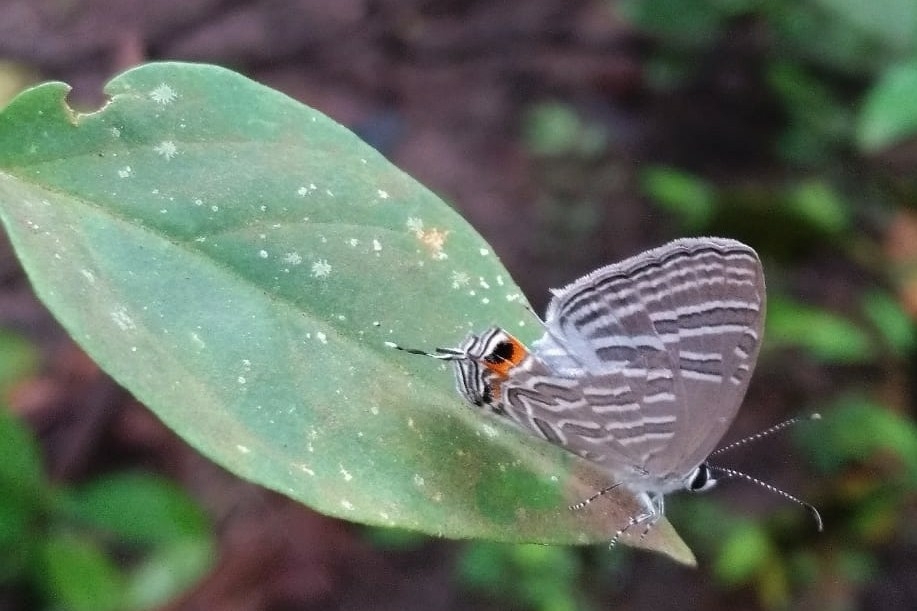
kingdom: Animalia
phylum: Arthropoda
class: Insecta
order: Lepidoptera
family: Lycaenidae
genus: Jamides
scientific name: Jamides celeno
